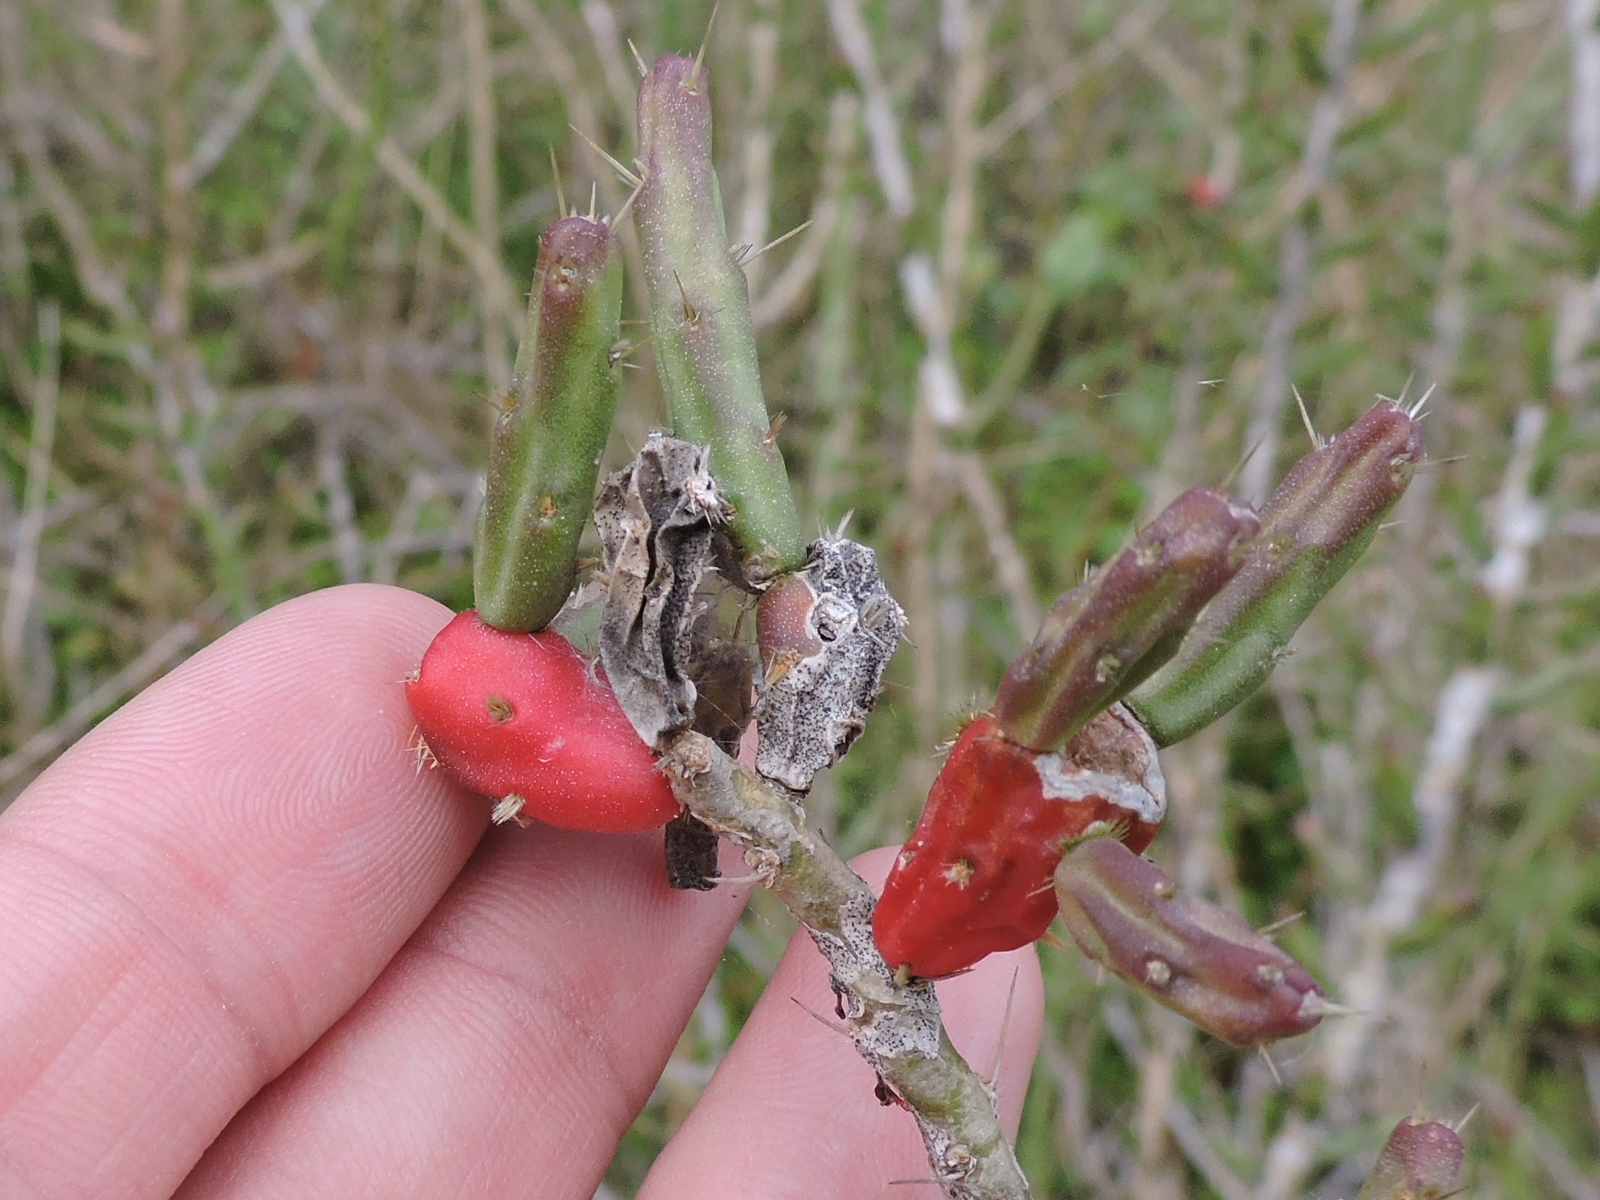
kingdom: Plantae
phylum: Tracheophyta
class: Magnoliopsida
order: Caryophyllales
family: Cactaceae
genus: Cylindropuntia
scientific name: Cylindropuntia leptocaulis
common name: Christmas cactus
